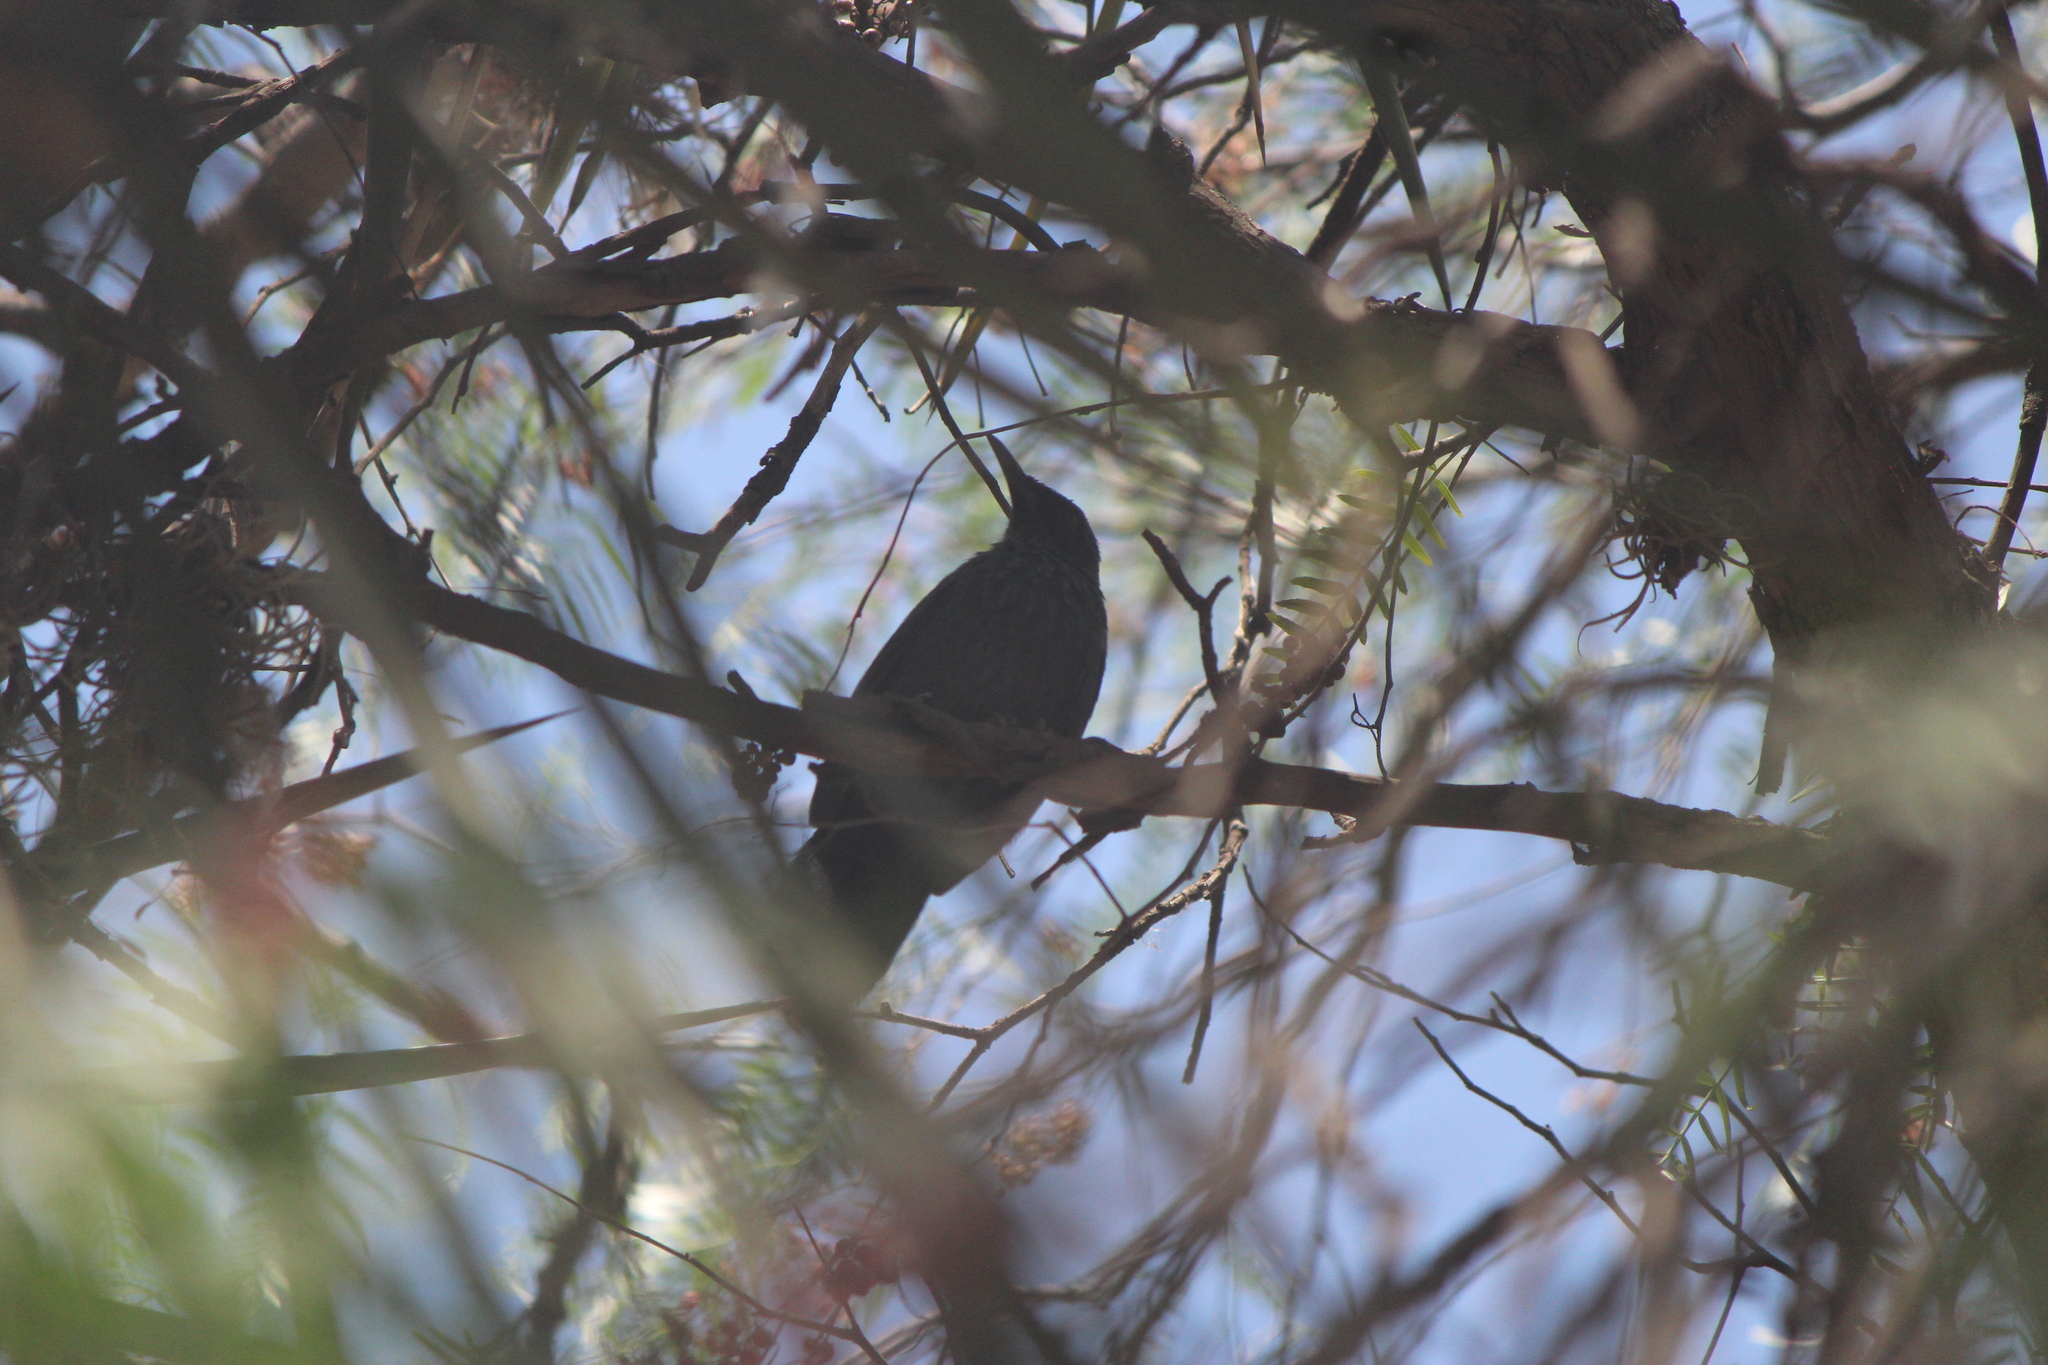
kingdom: Animalia
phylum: Chordata
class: Aves
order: Passeriformes
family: Mimidae
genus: Melanotis
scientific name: Melanotis caerulescens
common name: Blue mockingbird
